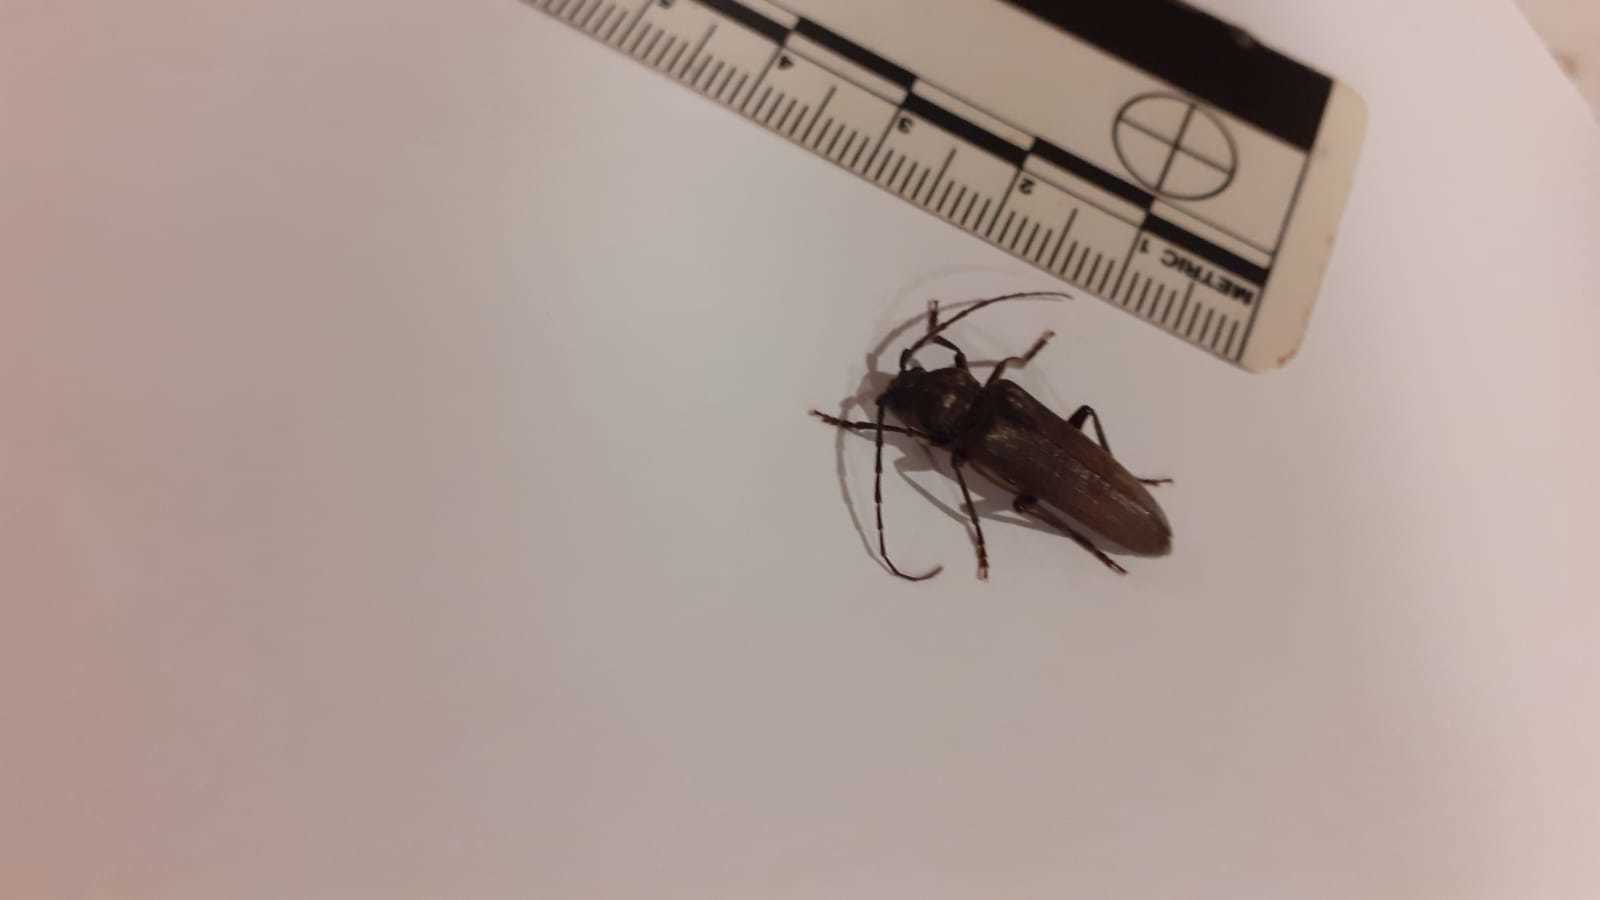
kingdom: Animalia
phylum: Arthropoda
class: Insecta
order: Coleoptera
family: Cerambycidae
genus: Arhopalus
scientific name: Arhopalus ferus
